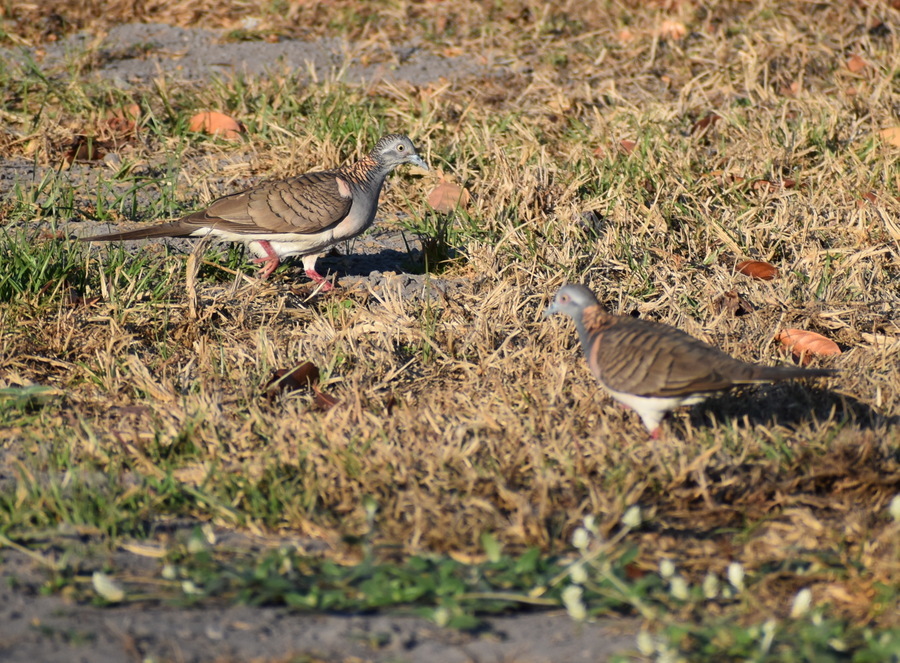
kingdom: Animalia
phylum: Chordata
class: Aves
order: Columbiformes
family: Columbidae
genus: Geopelia
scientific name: Geopelia humeralis
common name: Bar-shouldered dove
